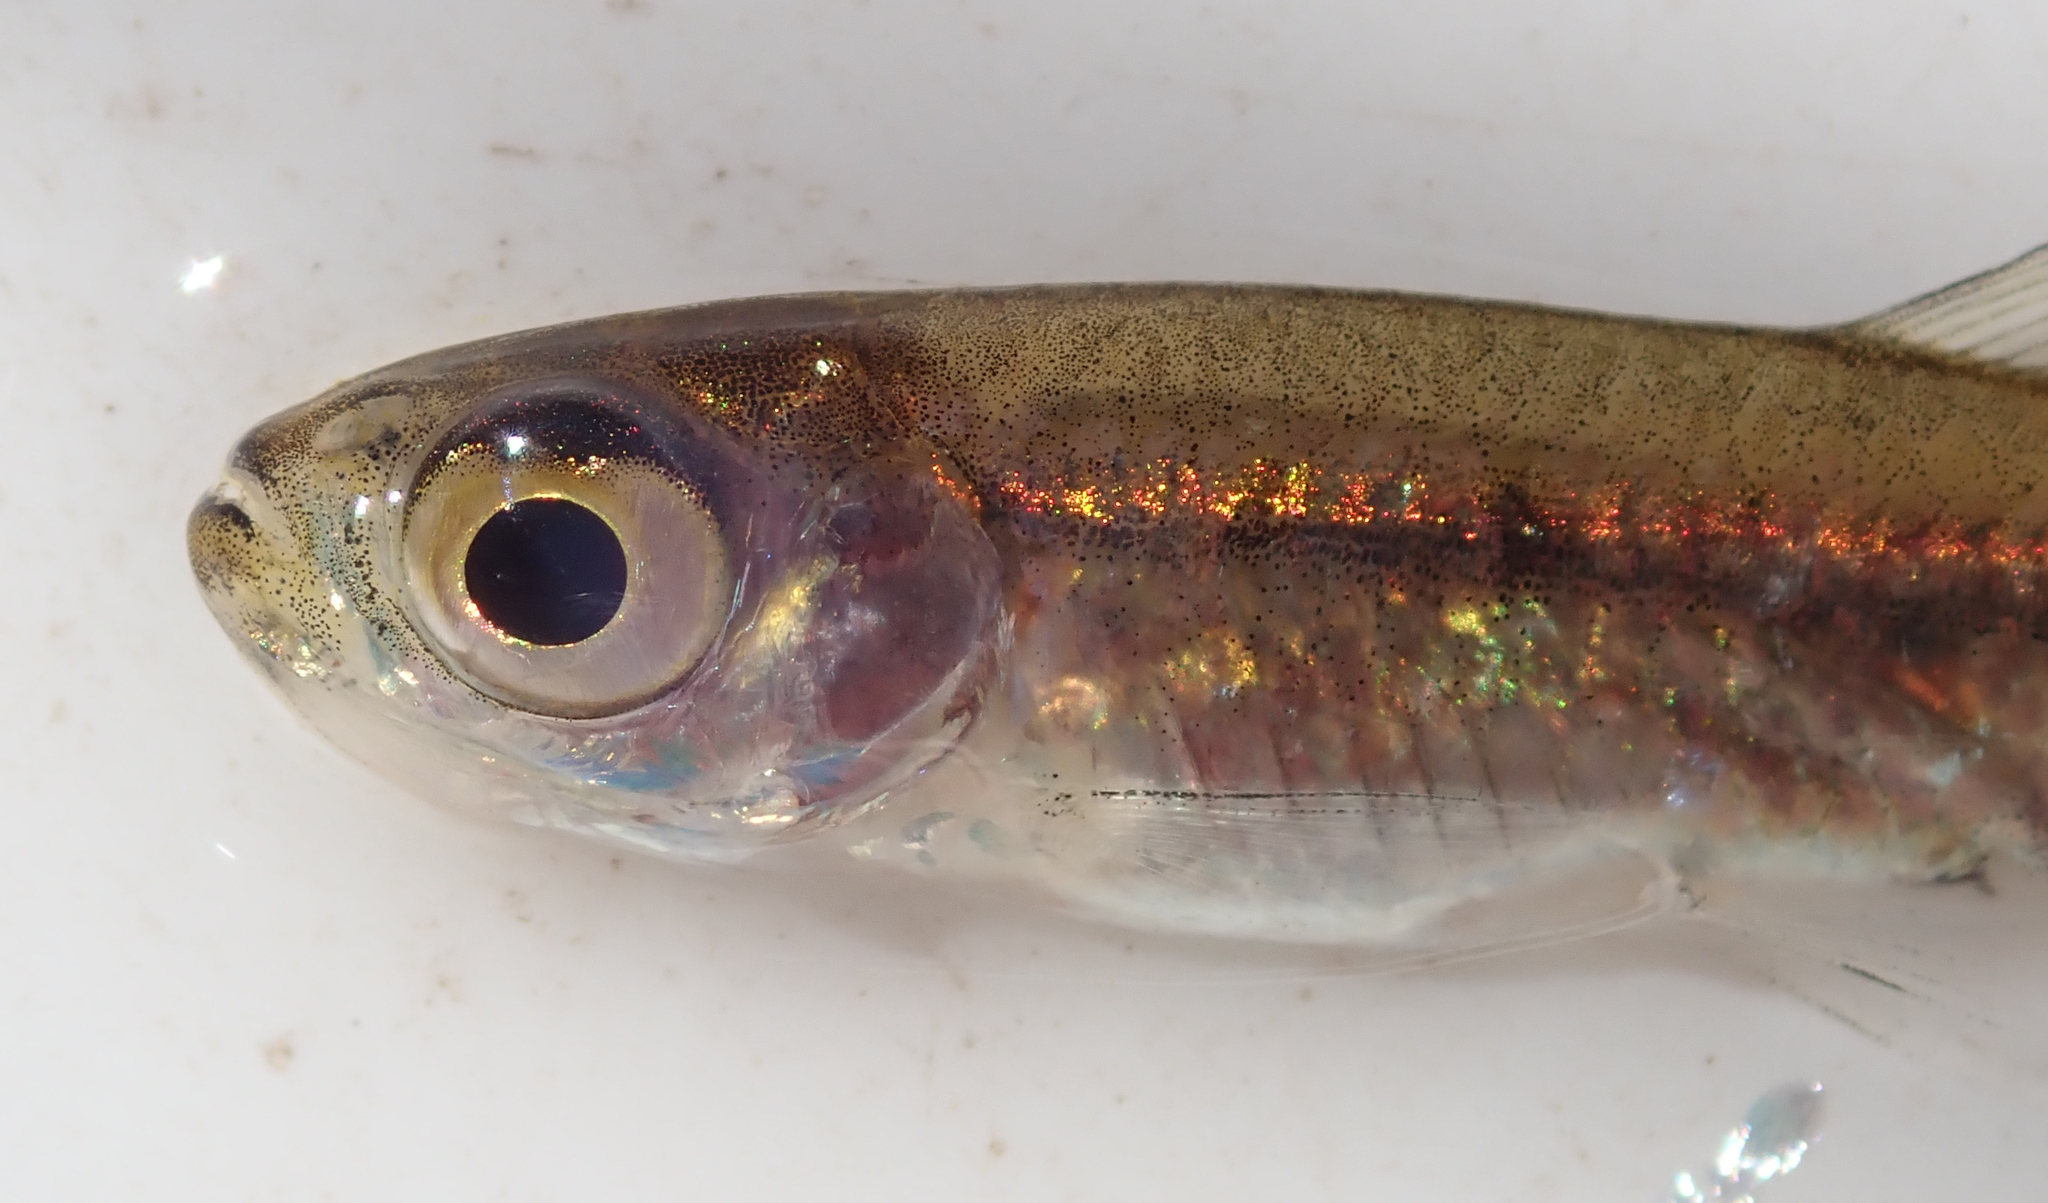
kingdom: Animalia
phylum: Chordata
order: Characiformes
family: Alestidae
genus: Rhabdalestes
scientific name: Rhabdalestes maunensis
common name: Slender robber
